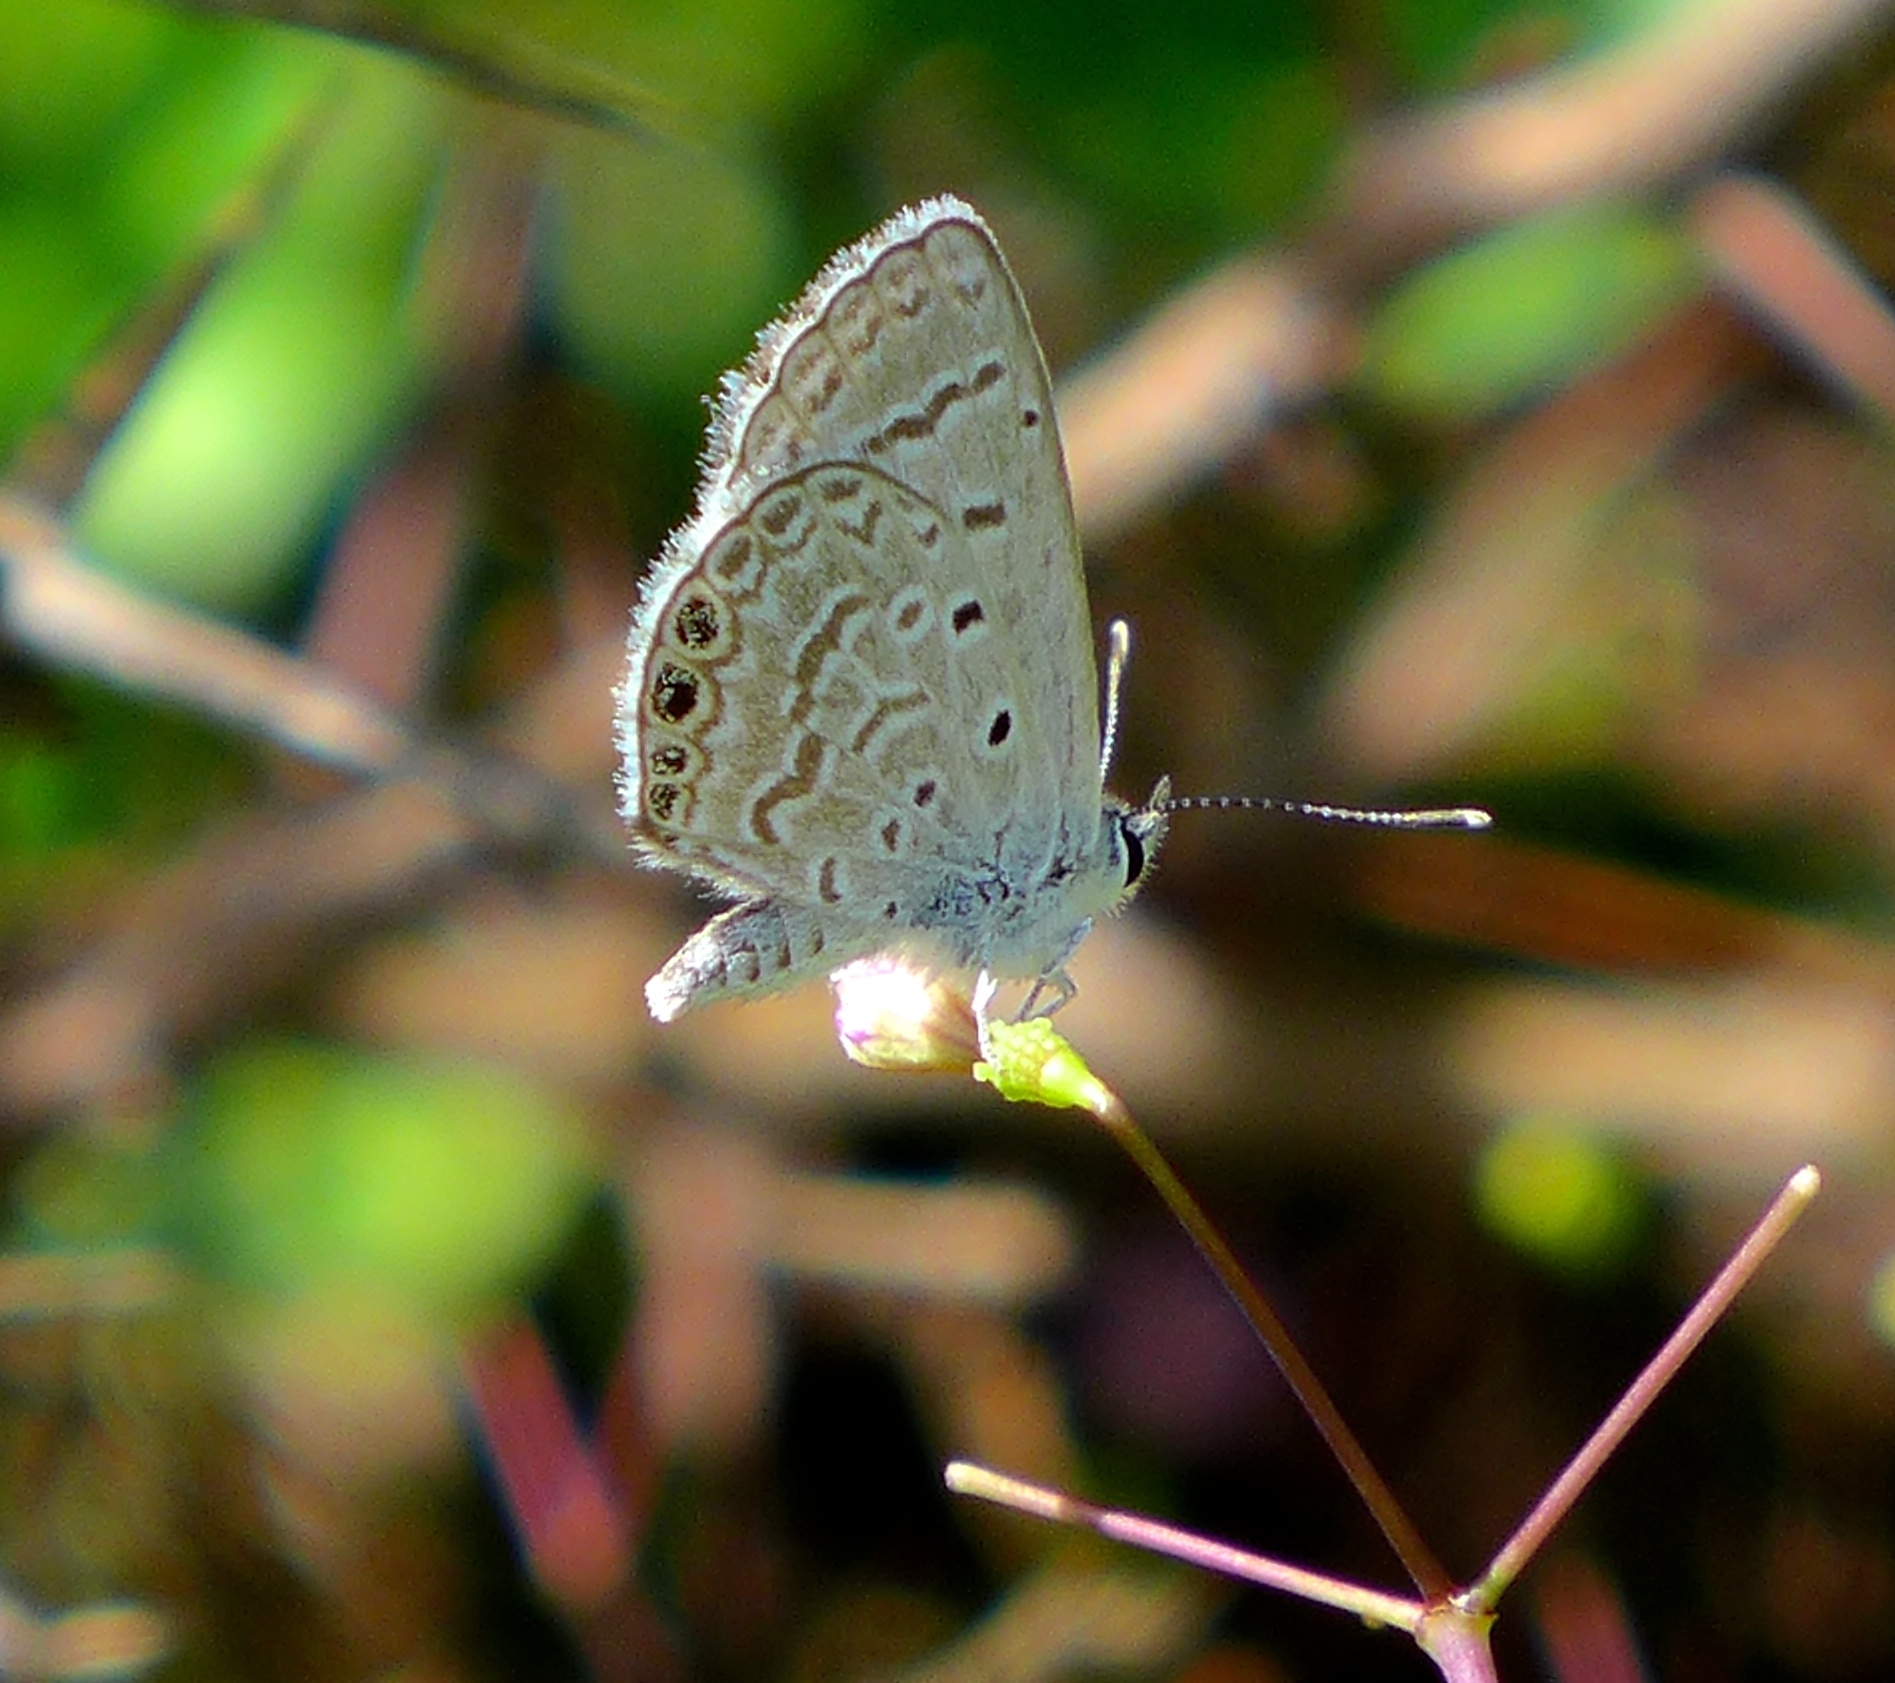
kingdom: Animalia
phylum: Arthropoda
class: Insecta
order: Lepidoptera
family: Lycaenidae
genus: Hemiargus
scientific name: Hemiargus ramon
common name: Ramon blue
